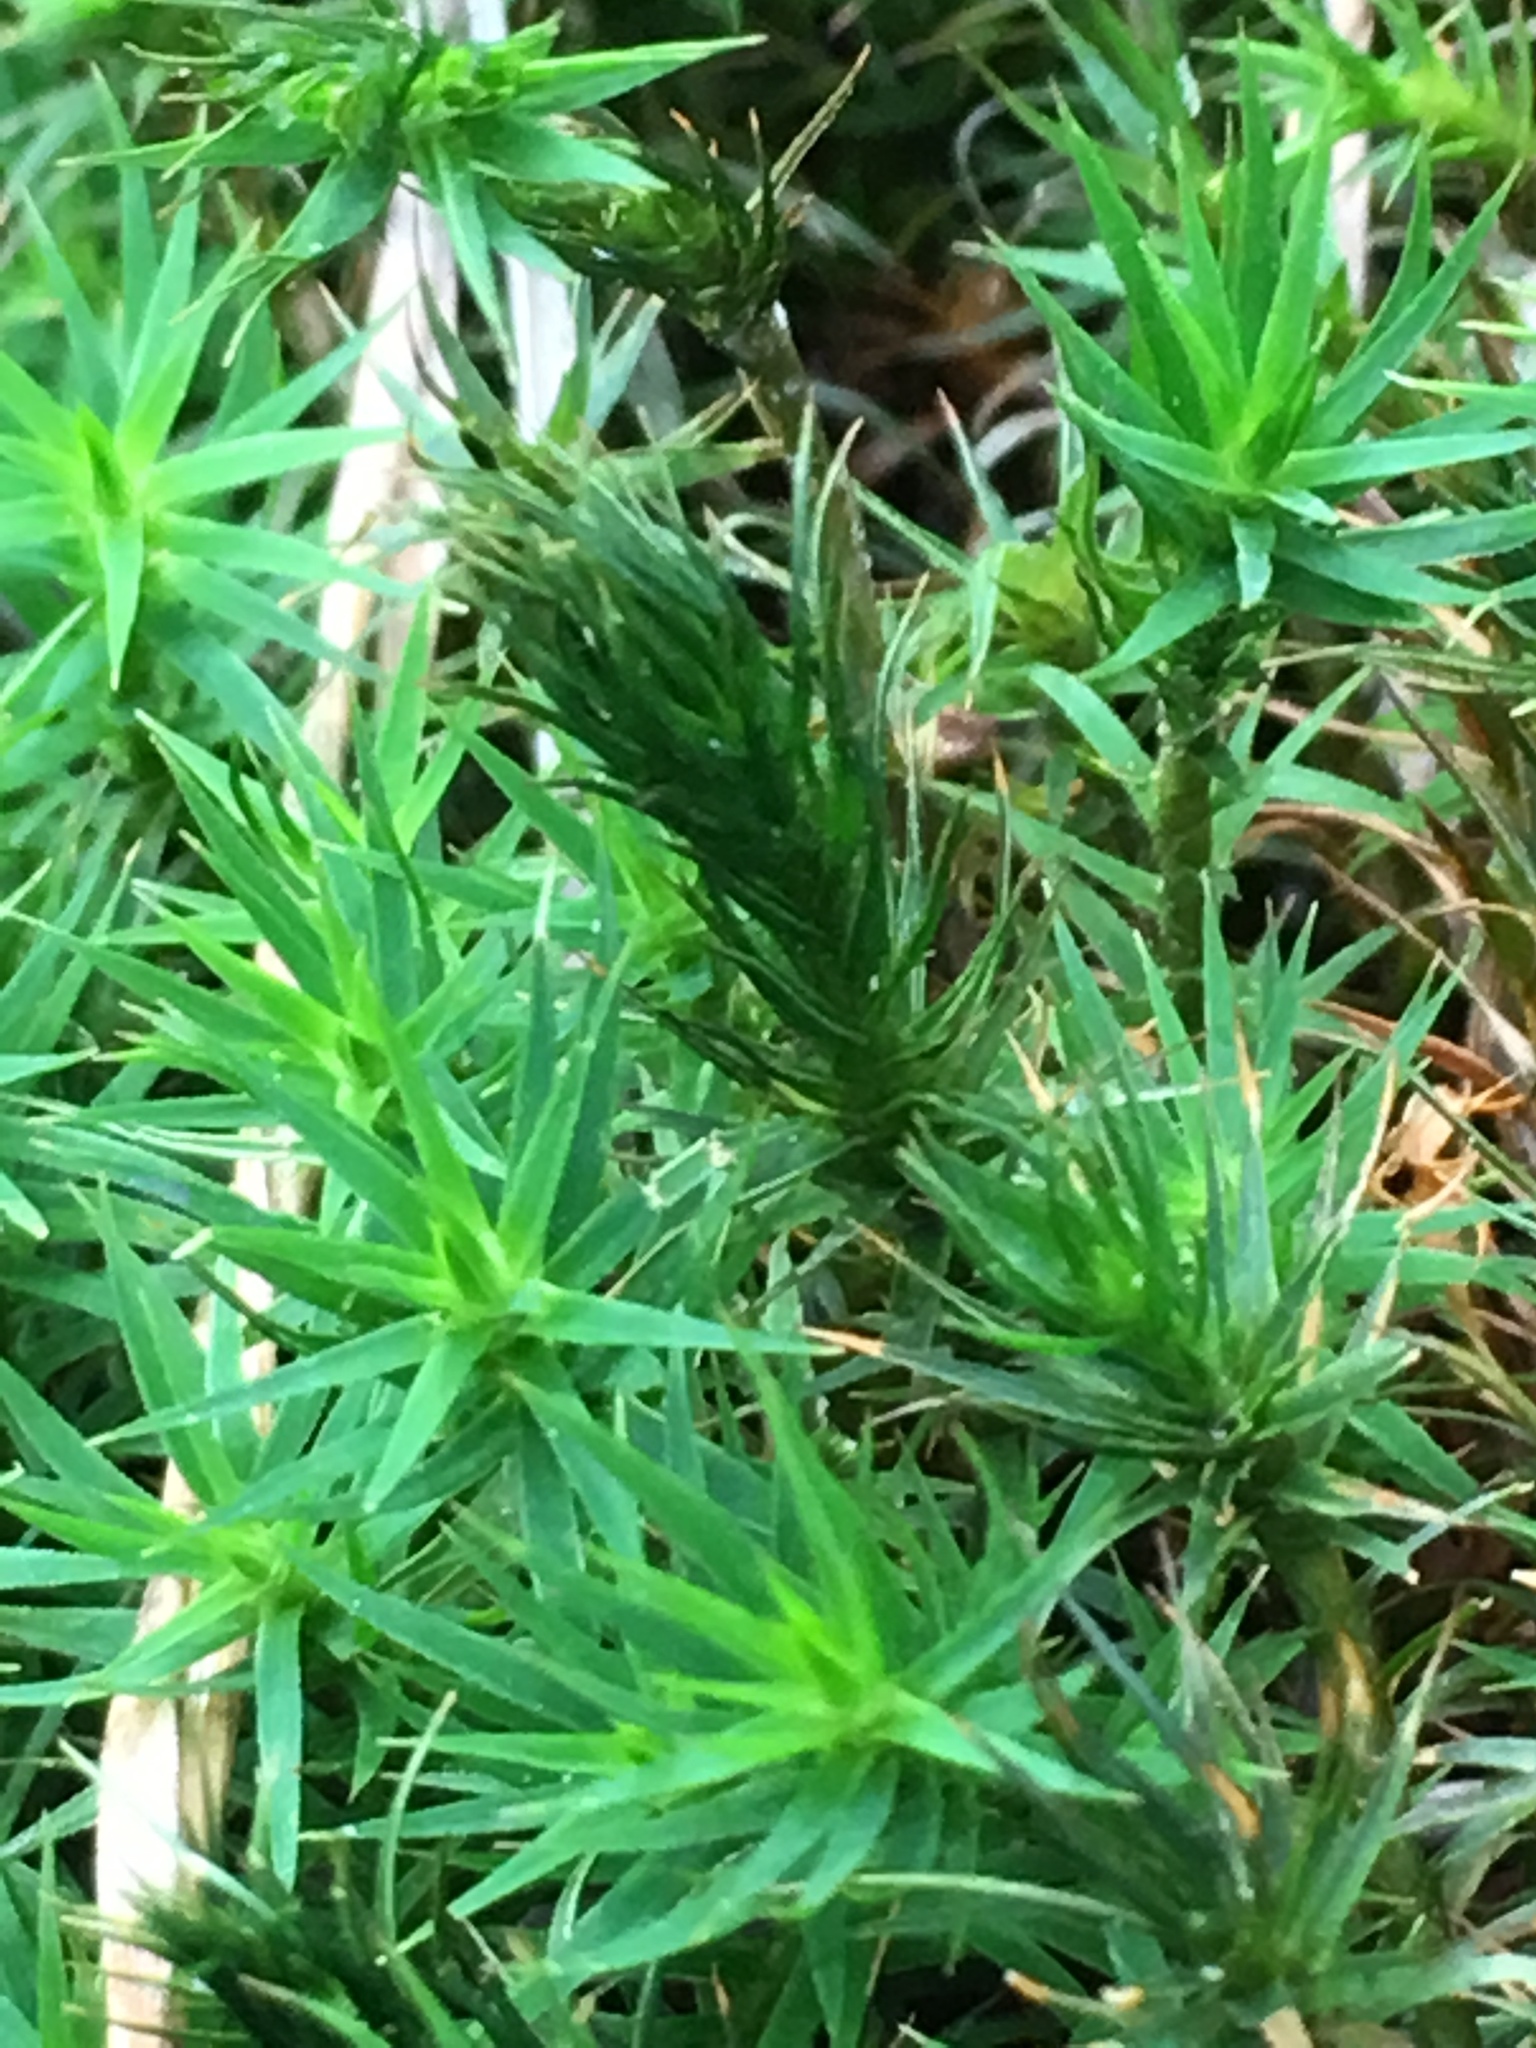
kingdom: Plantae
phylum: Bryophyta
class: Polytrichopsida
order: Polytrichales
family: Polytrichaceae
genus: Polytrichum
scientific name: Polytrichum formosum
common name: Bank haircap moss
